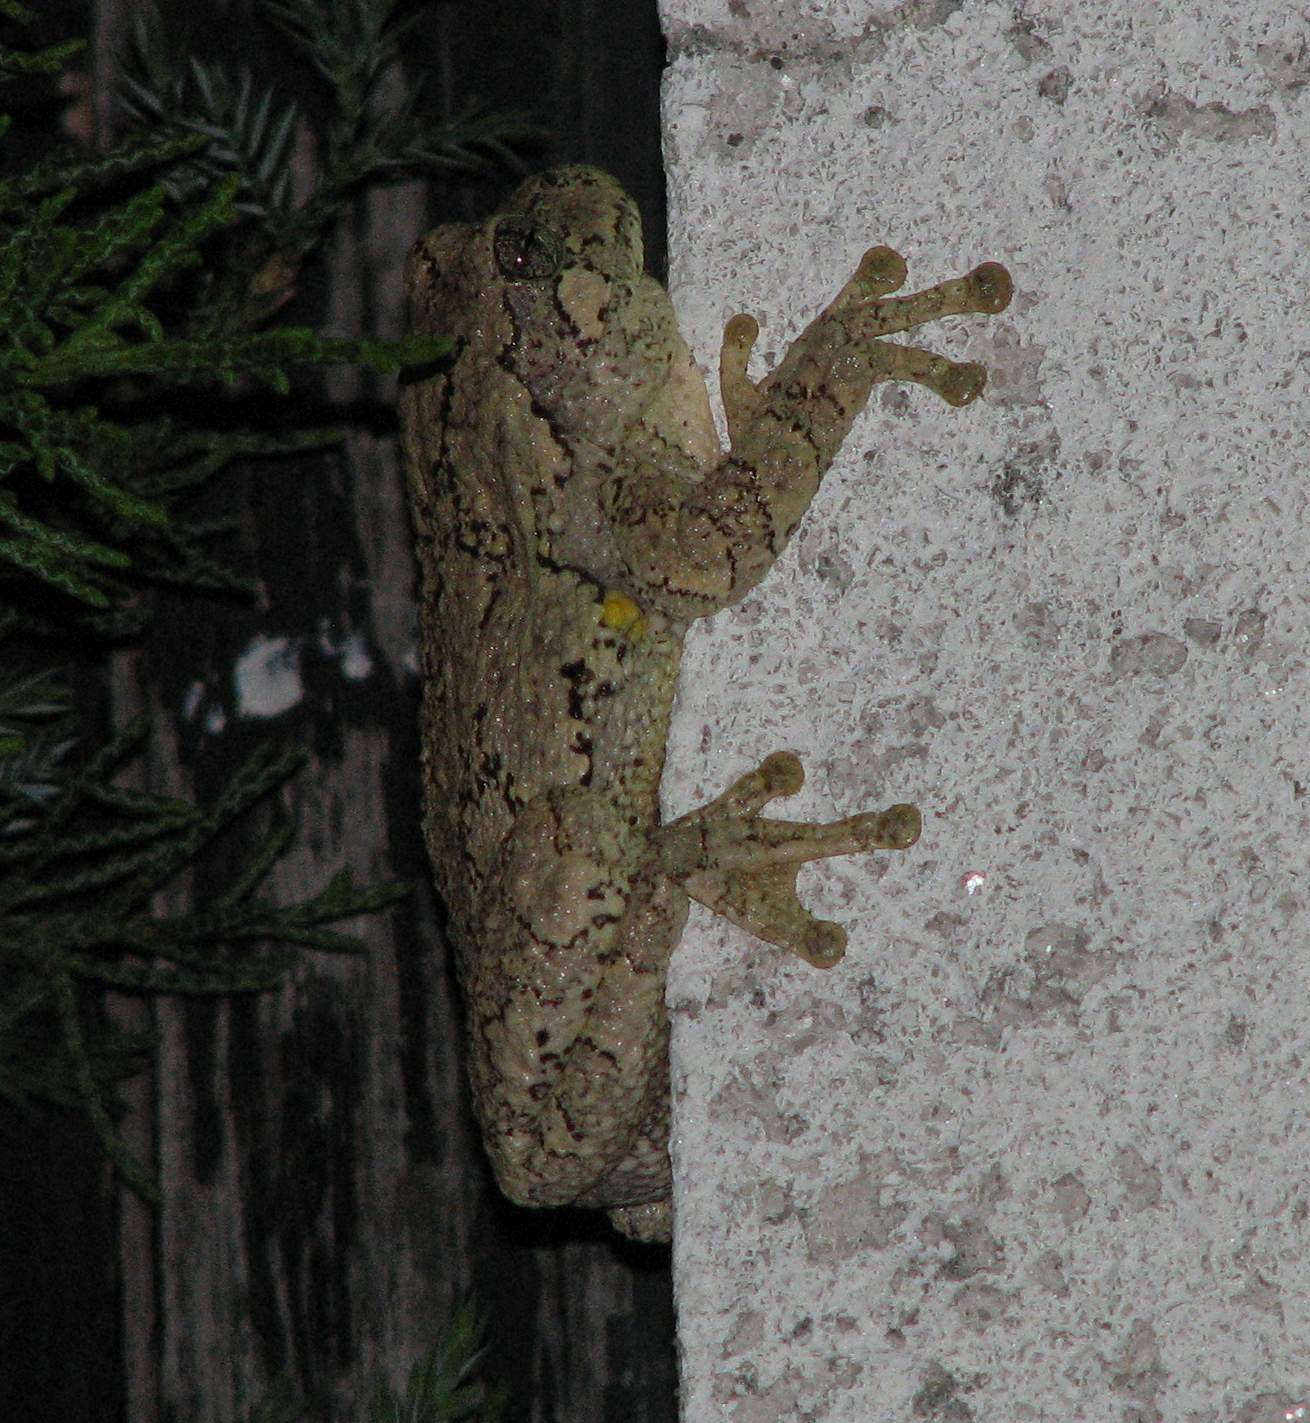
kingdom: Animalia
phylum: Chordata
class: Amphibia
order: Anura
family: Hylidae
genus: Dryophytes
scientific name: Dryophytes versicolor
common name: Gray treefrog
